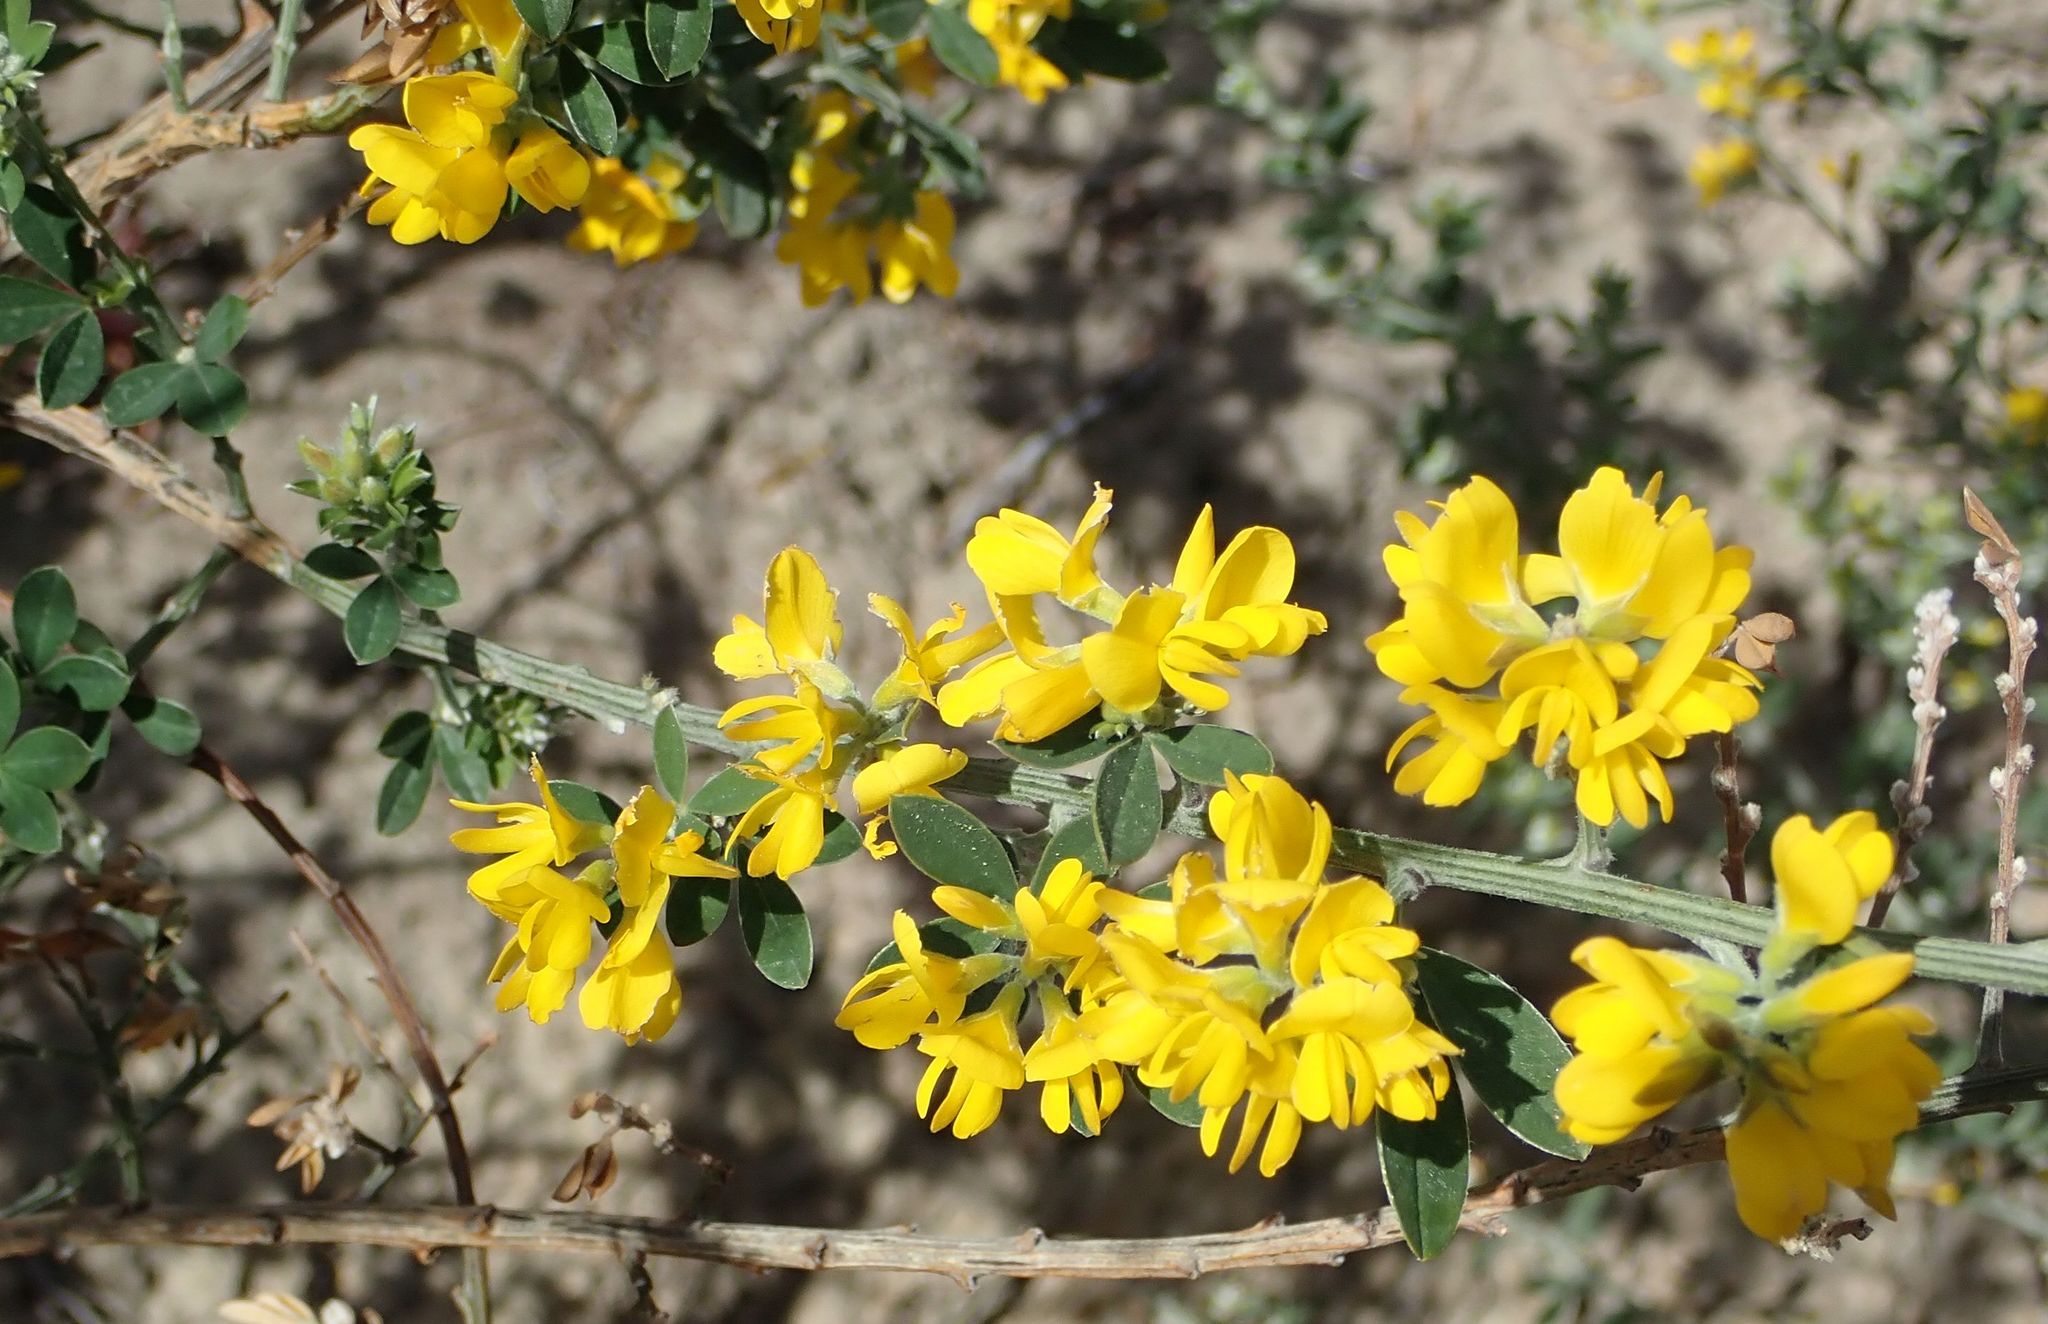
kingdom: Plantae
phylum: Tracheophyta
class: Magnoliopsida
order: Fabales
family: Fabaceae
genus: Genista
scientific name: Genista monspessulana
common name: Montpellier broom
